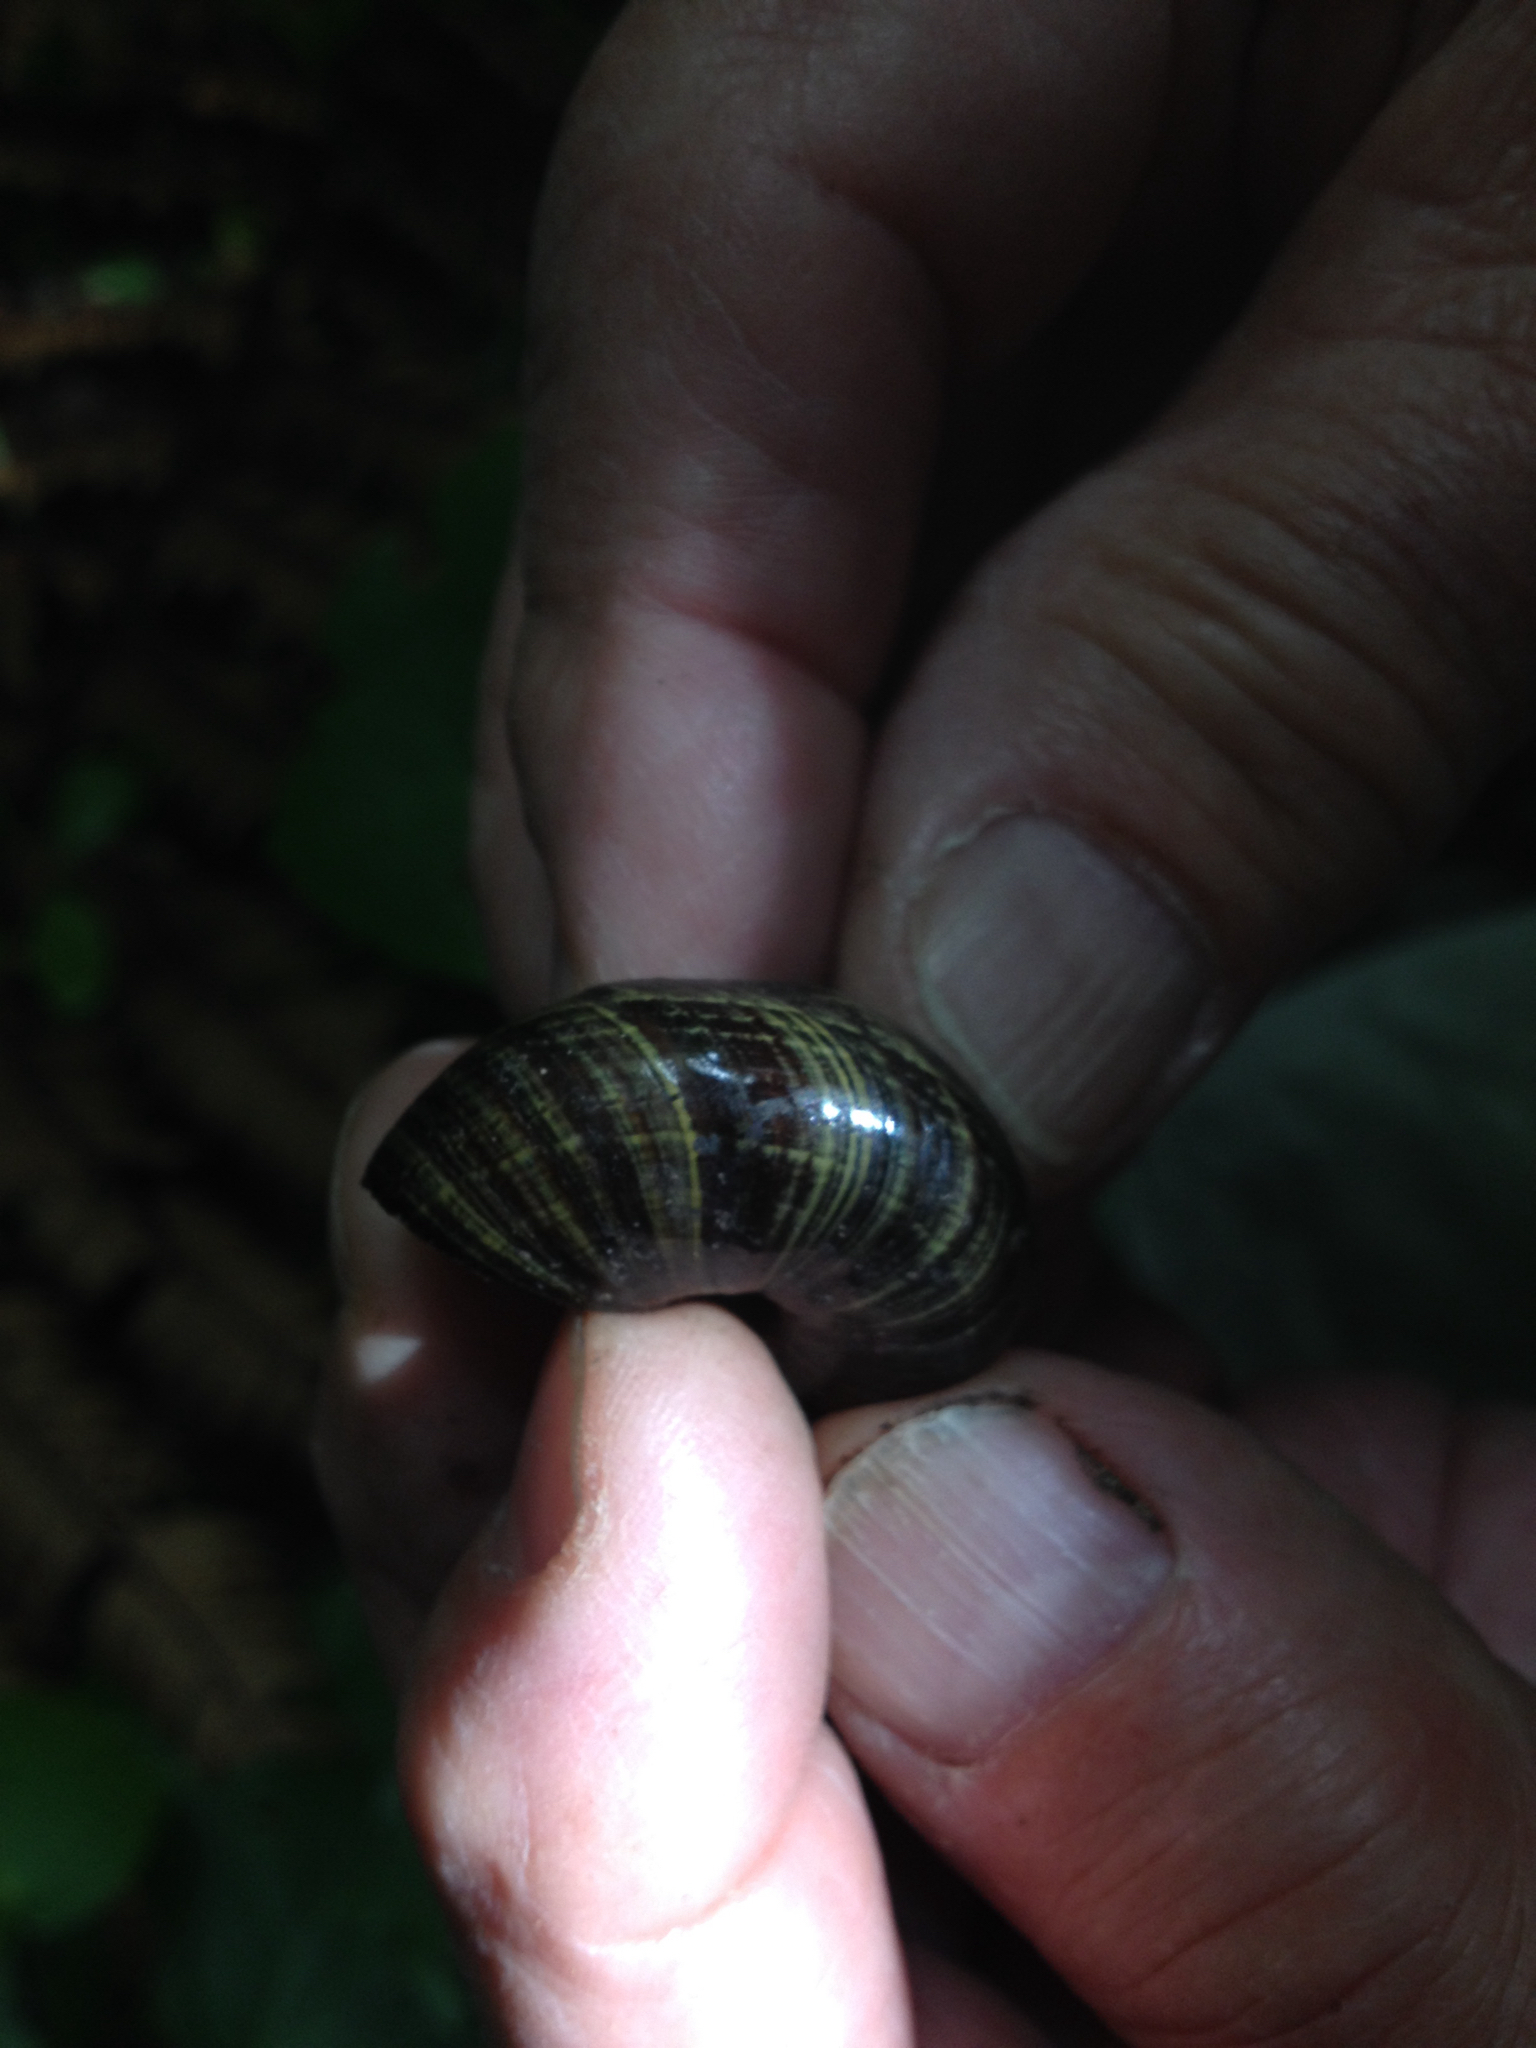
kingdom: Animalia
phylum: Mollusca
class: Gastropoda
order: Stylommatophora
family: Rhytididae
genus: Powelliphanta
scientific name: Powelliphanta traversi
